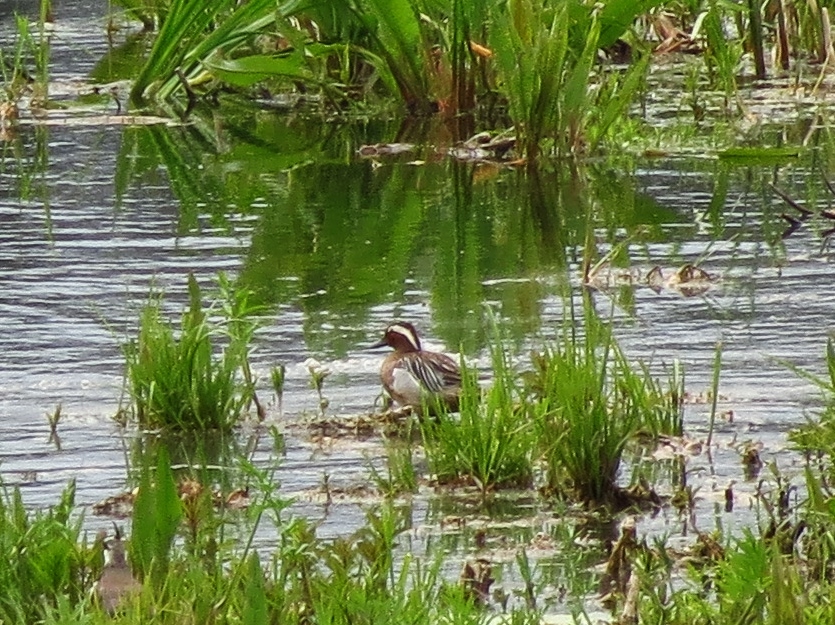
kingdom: Animalia
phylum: Chordata
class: Aves
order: Anseriformes
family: Anatidae
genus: Spatula
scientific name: Spatula querquedula
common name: Garganey
